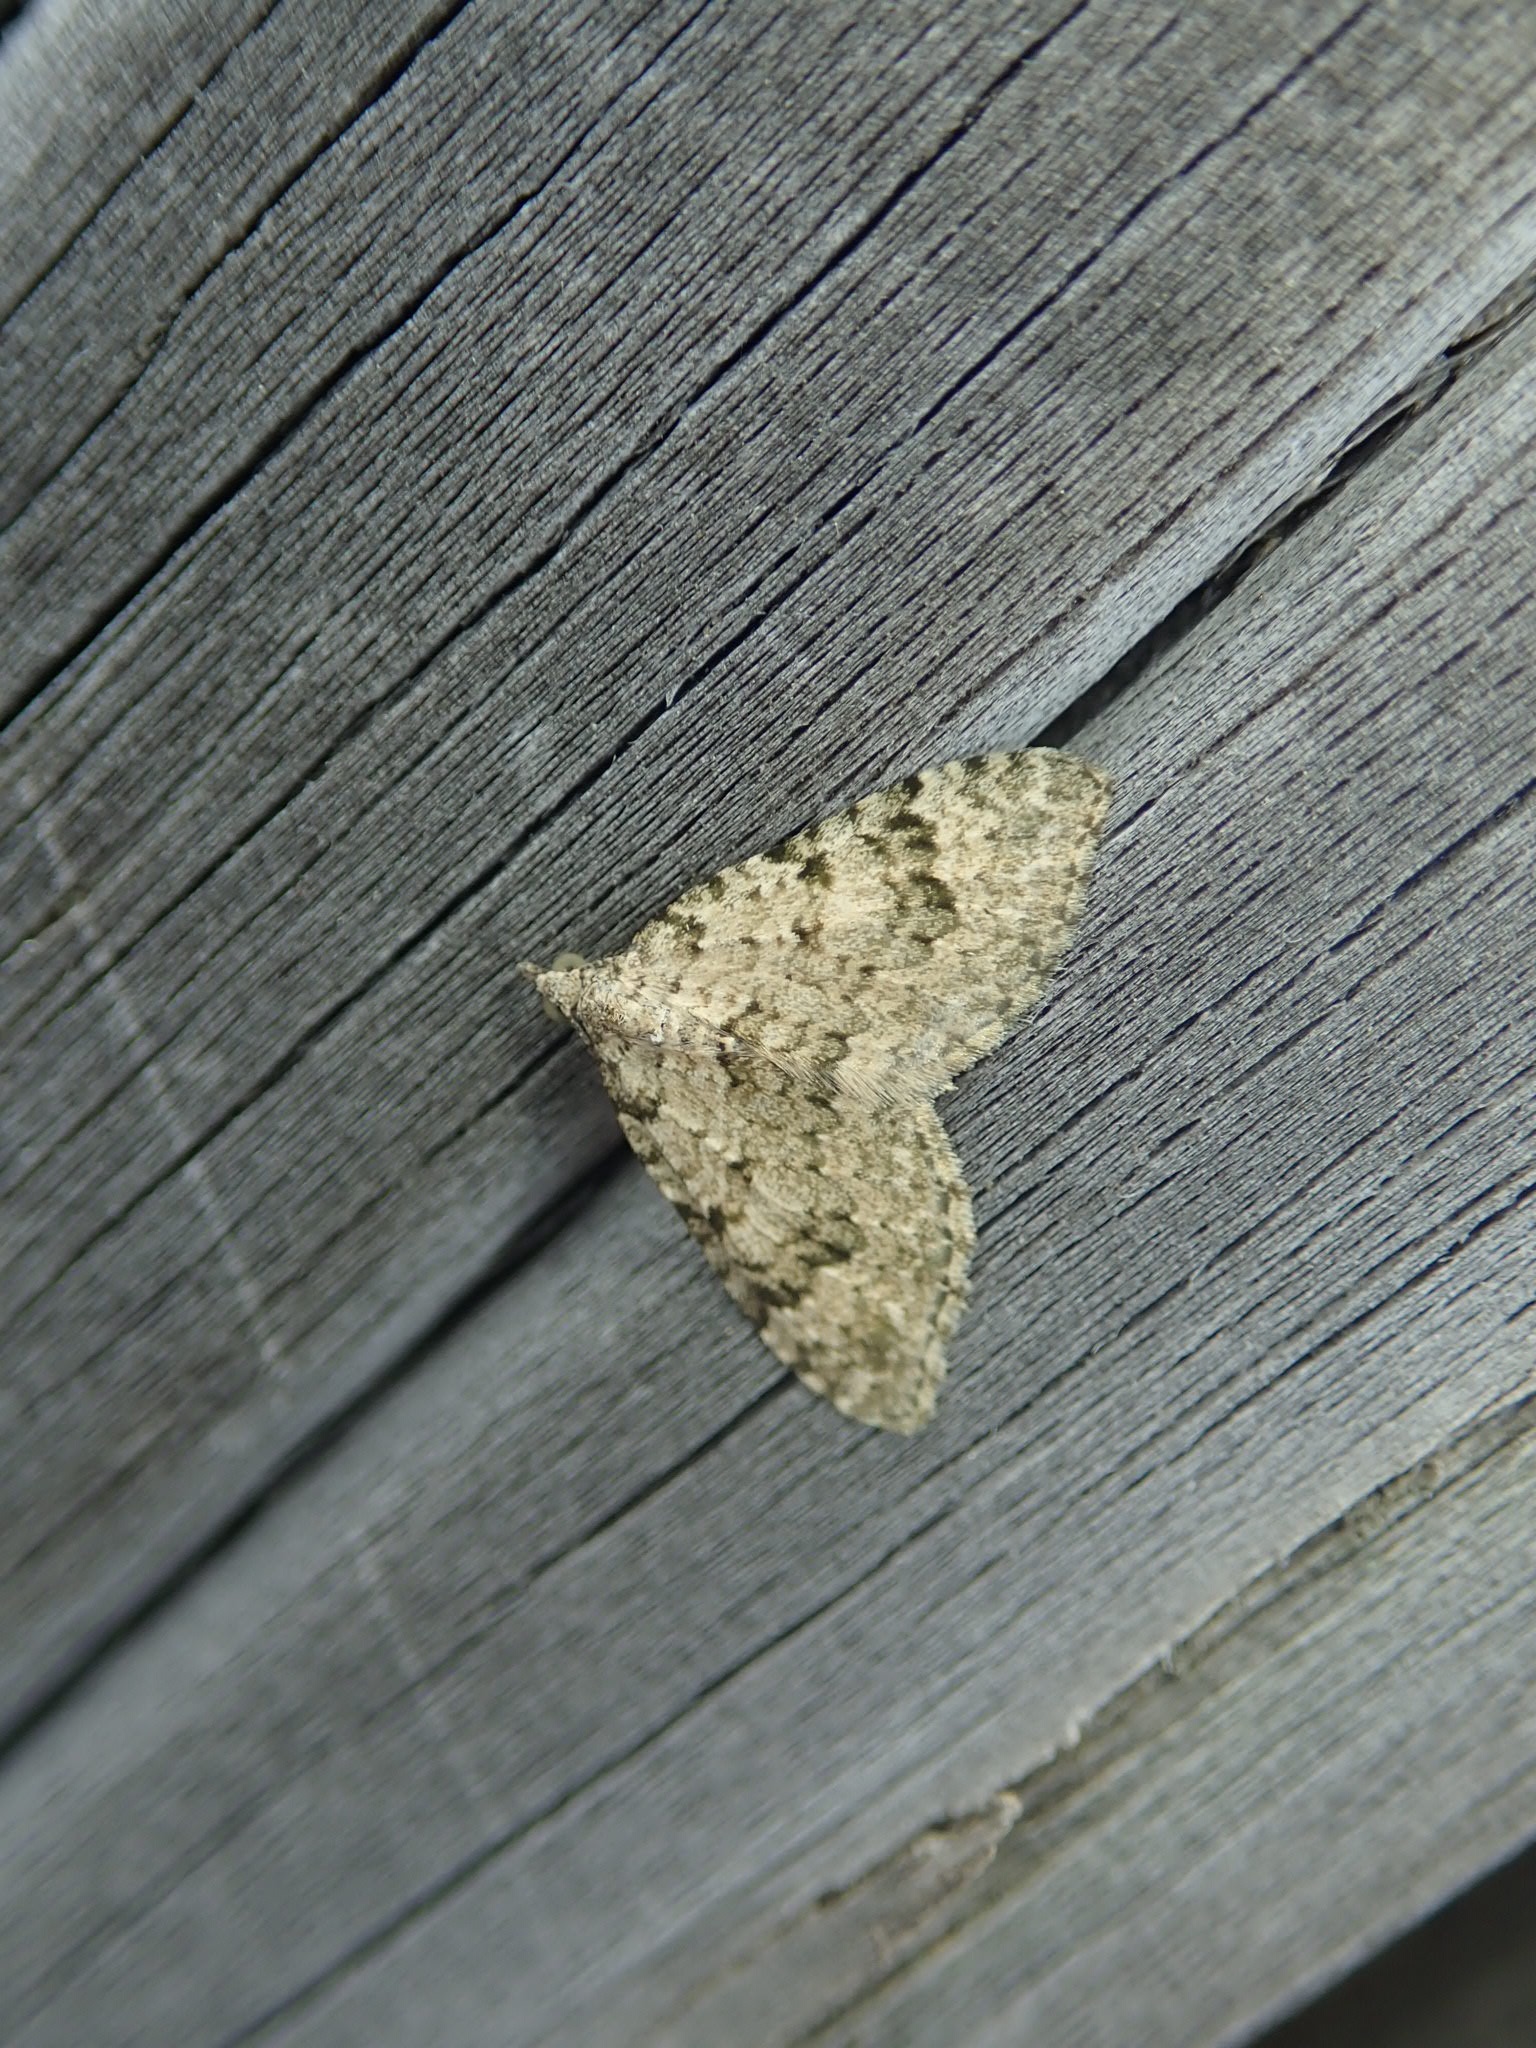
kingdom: Animalia
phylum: Arthropoda
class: Insecta
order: Lepidoptera
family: Geometridae
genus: Helastia
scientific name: Helastia cinerearia
